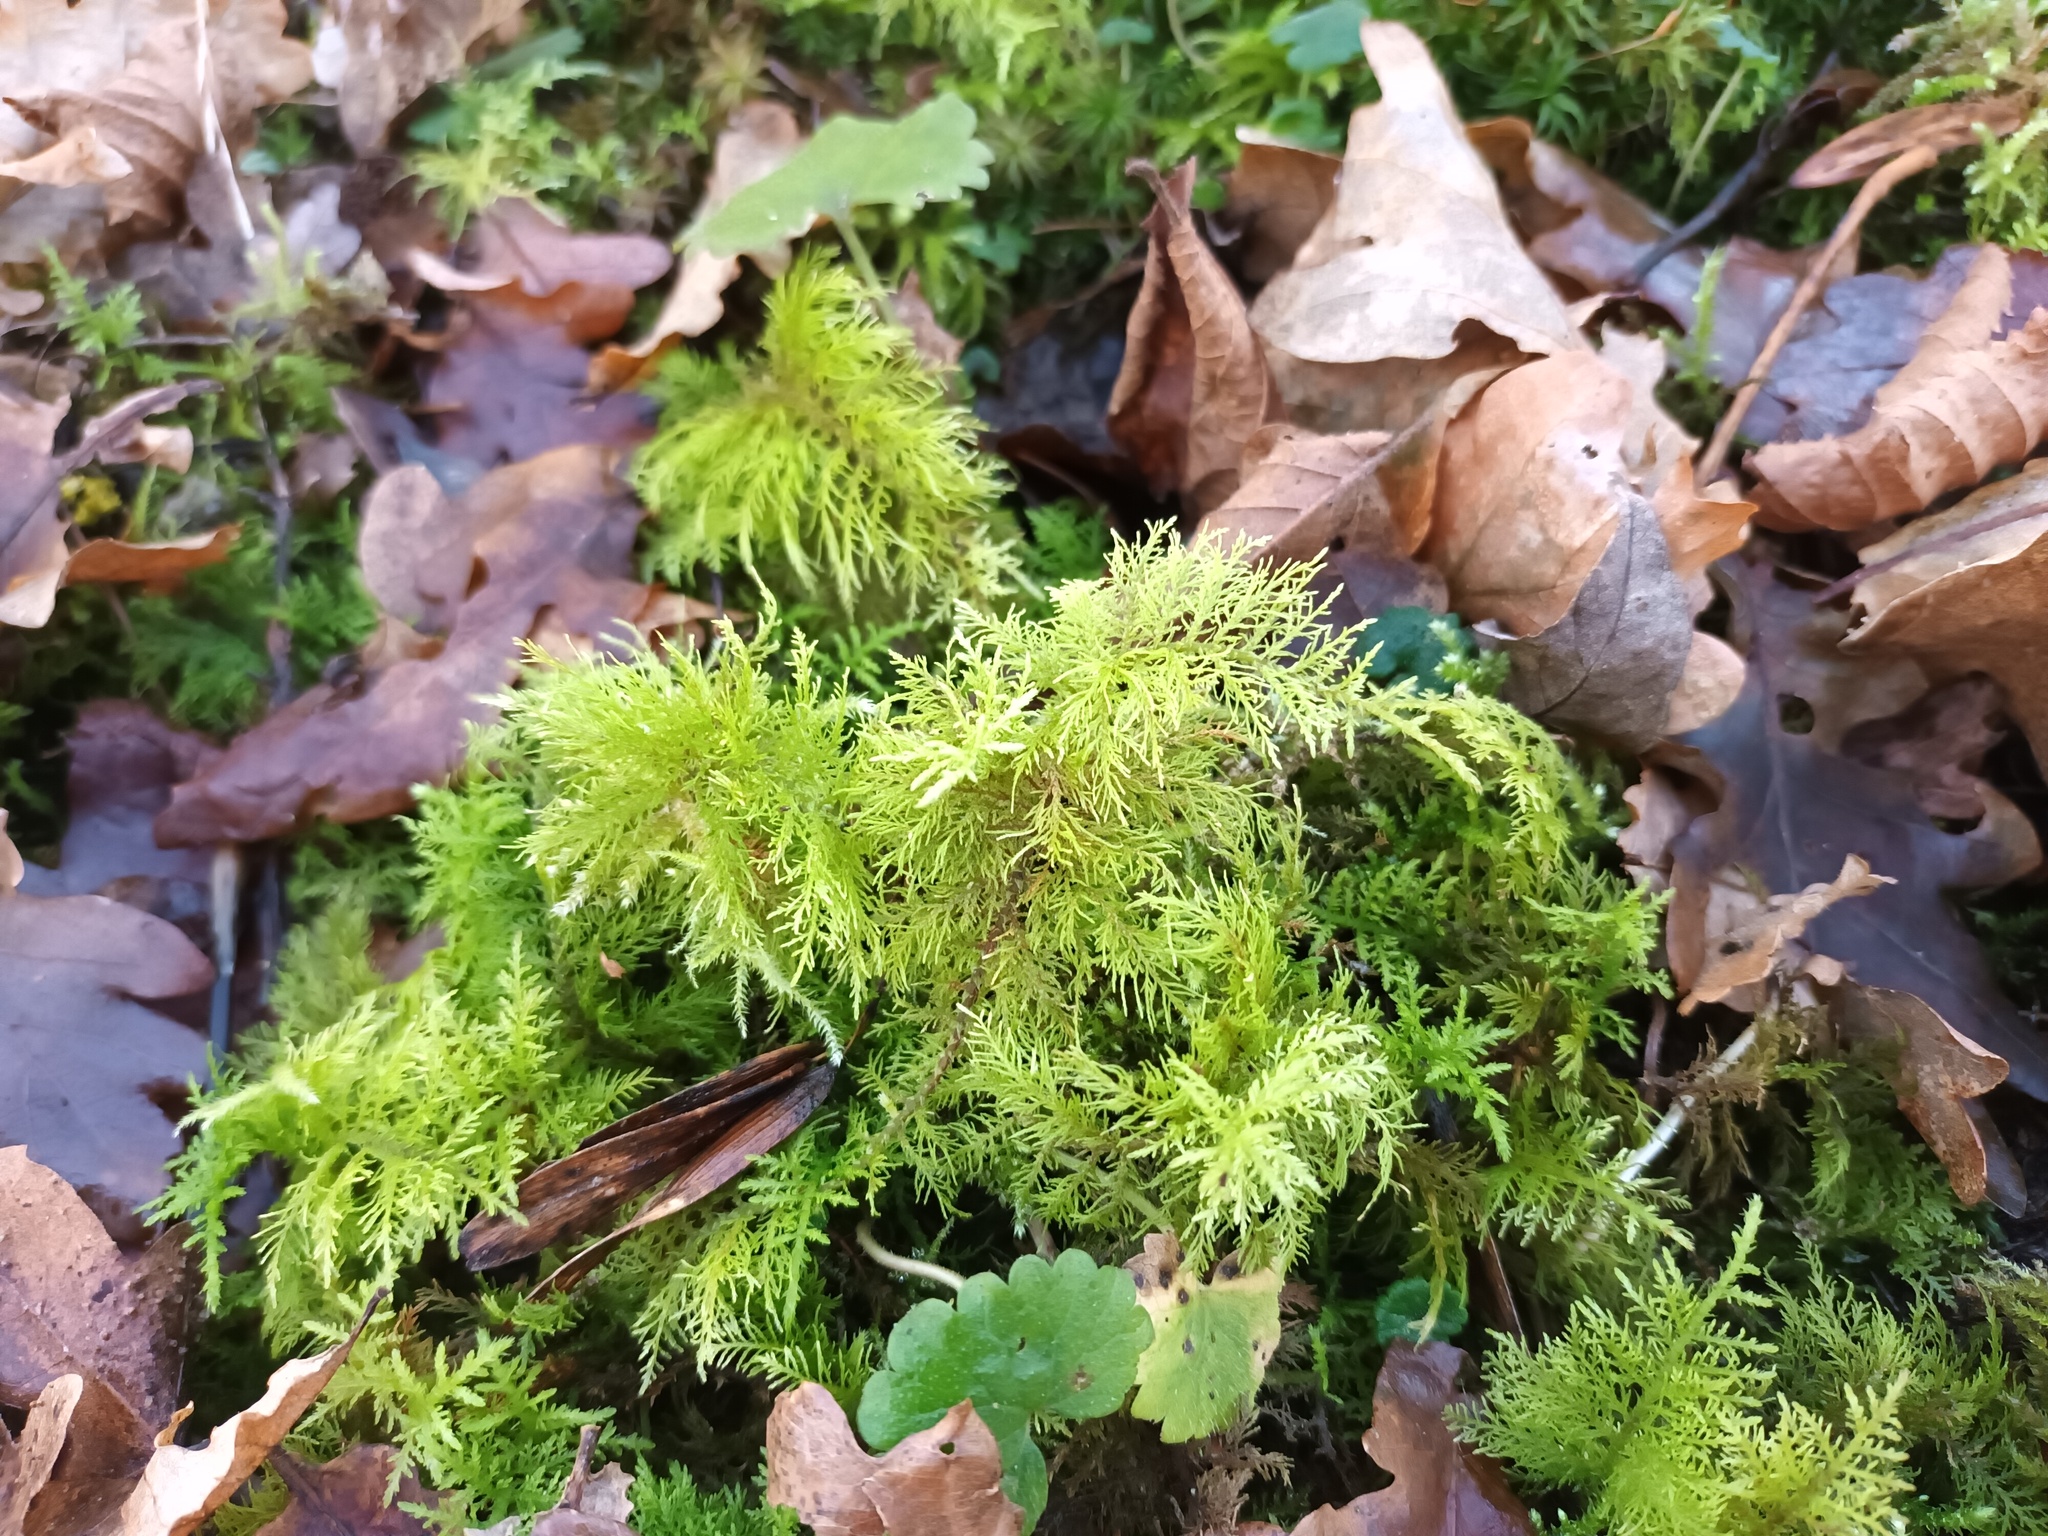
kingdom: Plantae
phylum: Bryophyta
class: Bryopsida
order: Hypnales
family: Thuidiaceae
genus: Thuidium
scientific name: Thuidium tamariscinum
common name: Common tamarisk-moss
